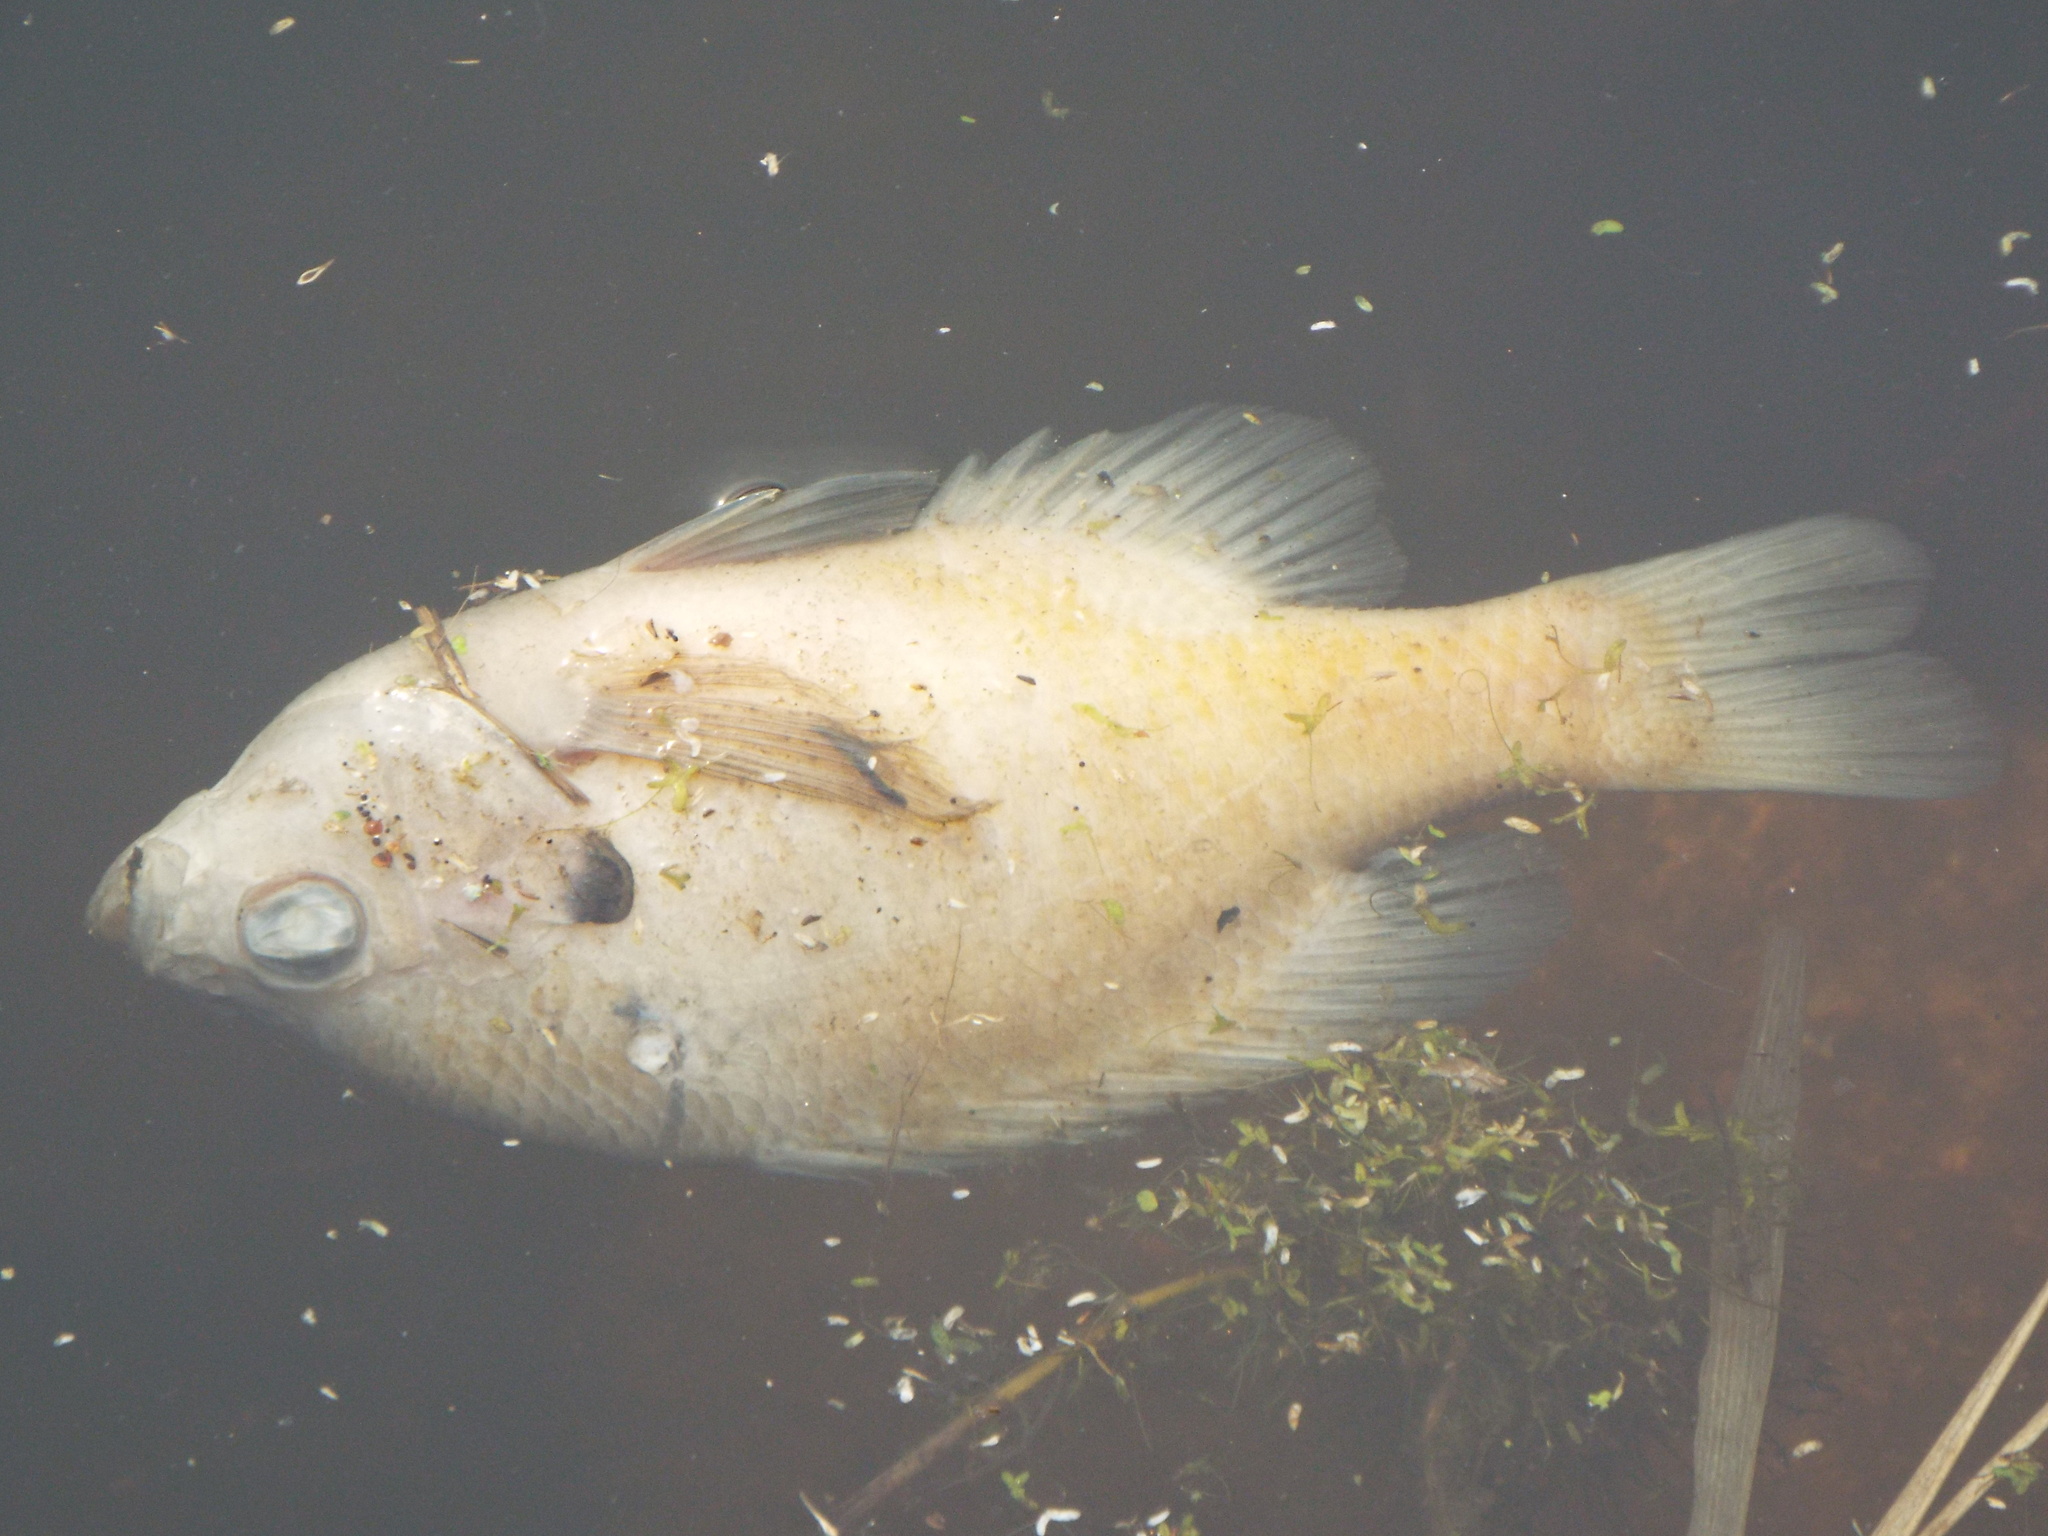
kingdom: Animalia
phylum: Chordata
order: Perciformes
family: Centrarchidae
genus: Lepomis
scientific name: Lepomis macrochirus
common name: Bluegill
